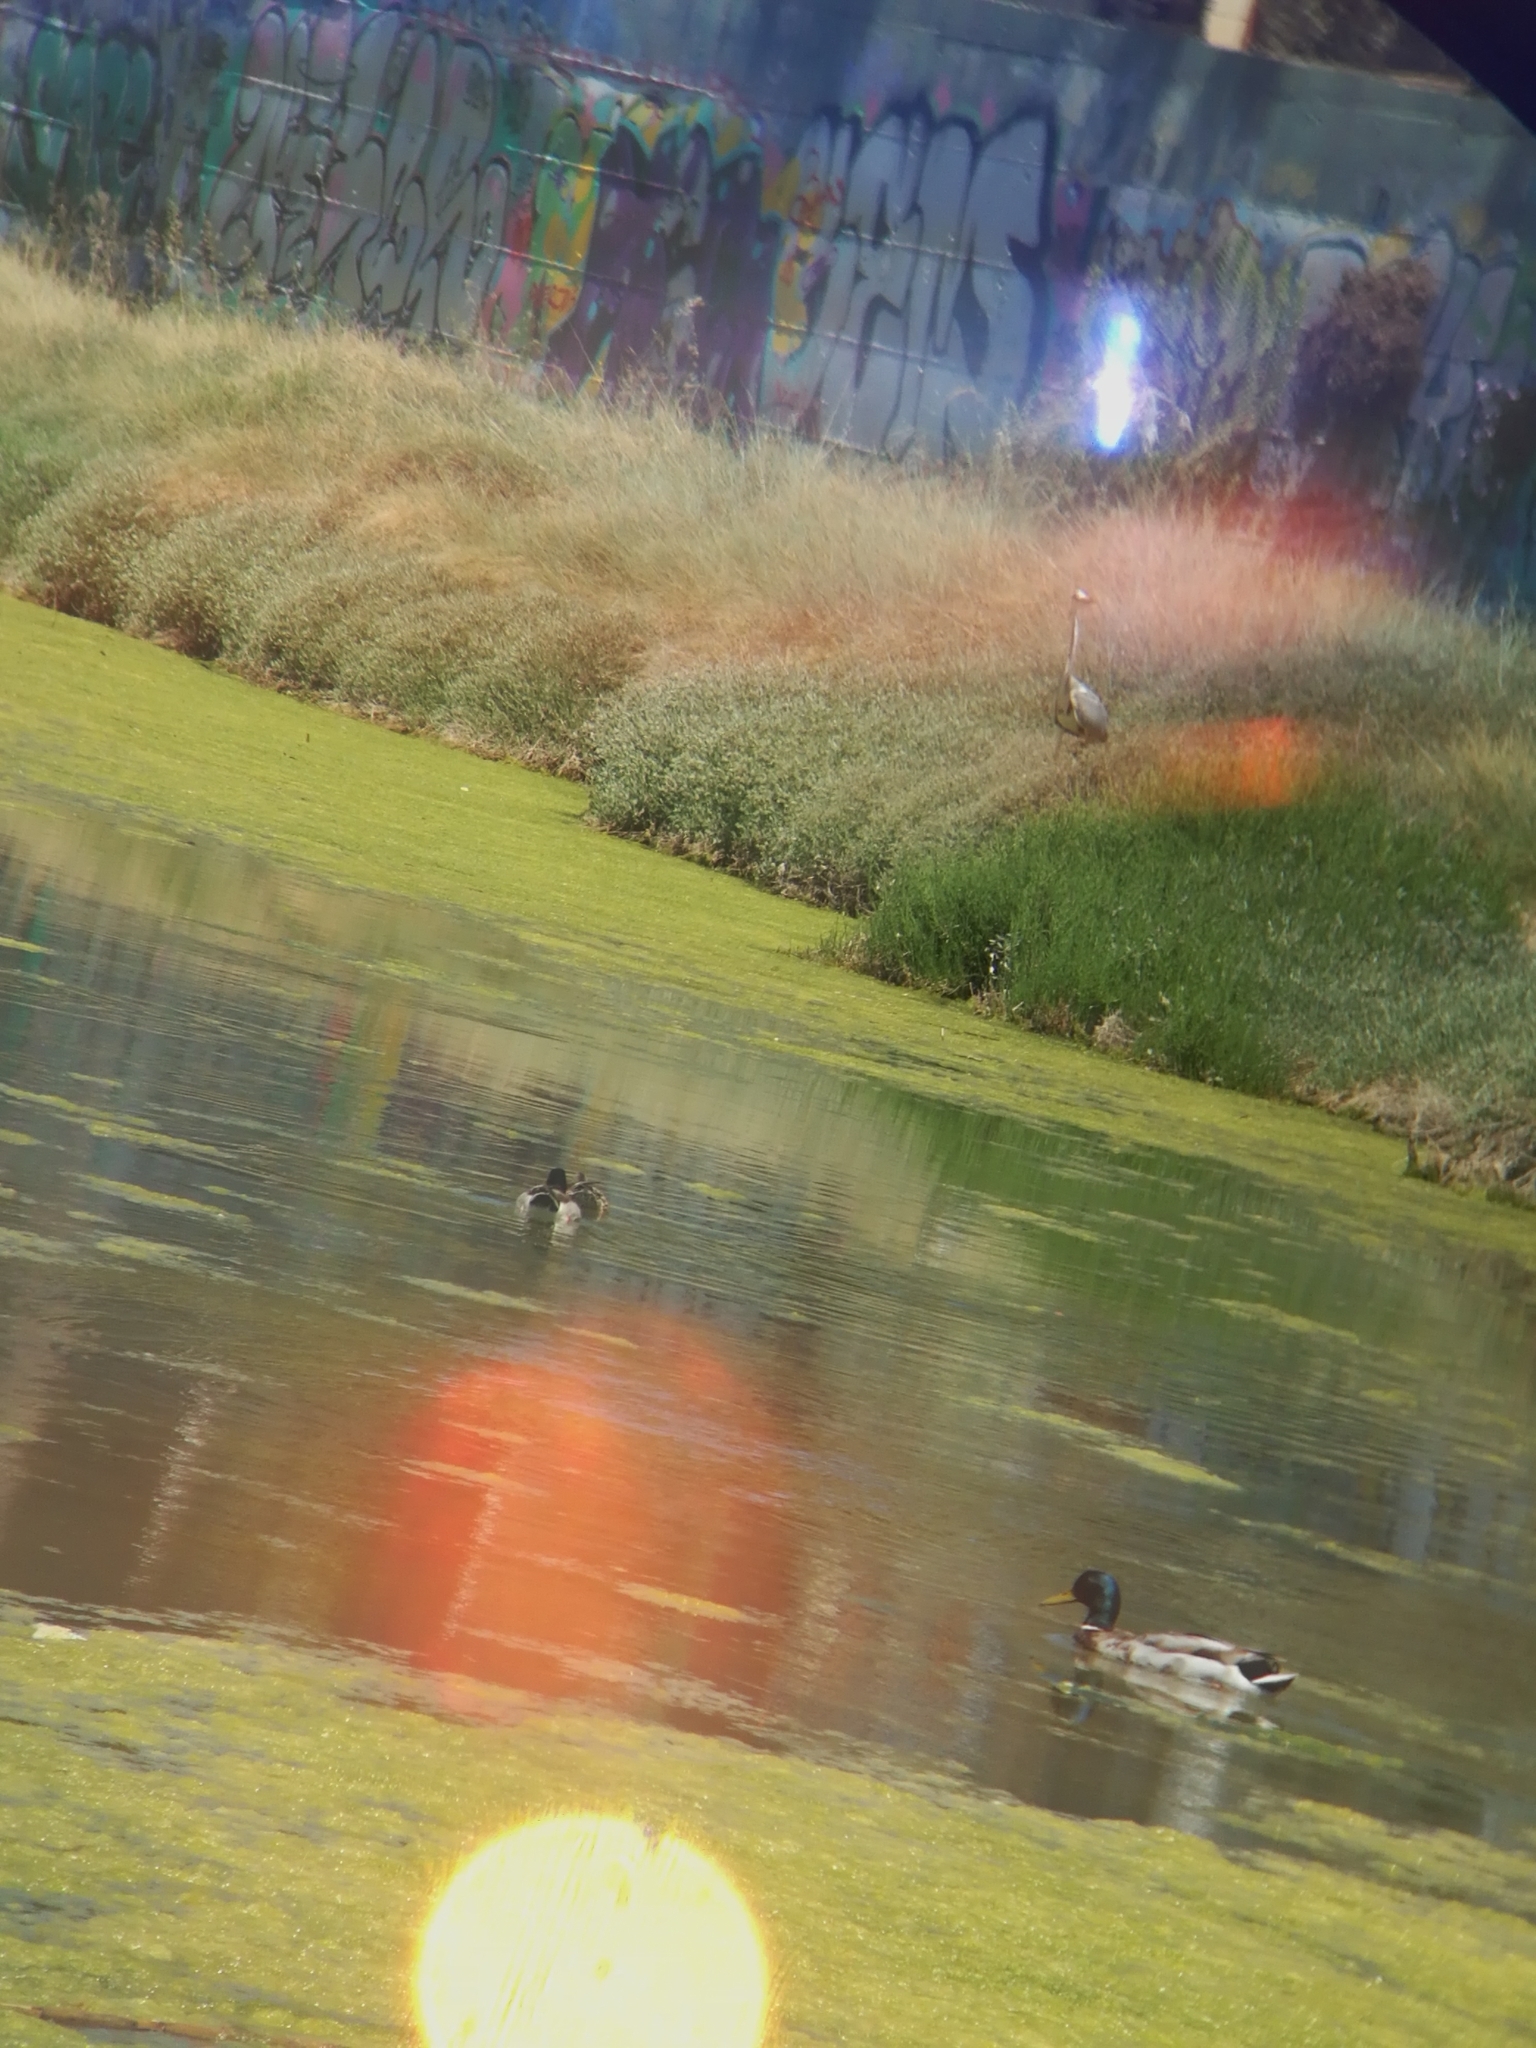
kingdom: Animalia
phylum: Chordata
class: Aves
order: Pelecaniformes
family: Ardeidae
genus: Ardea
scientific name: Ardea cinerea
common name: Grey heron
